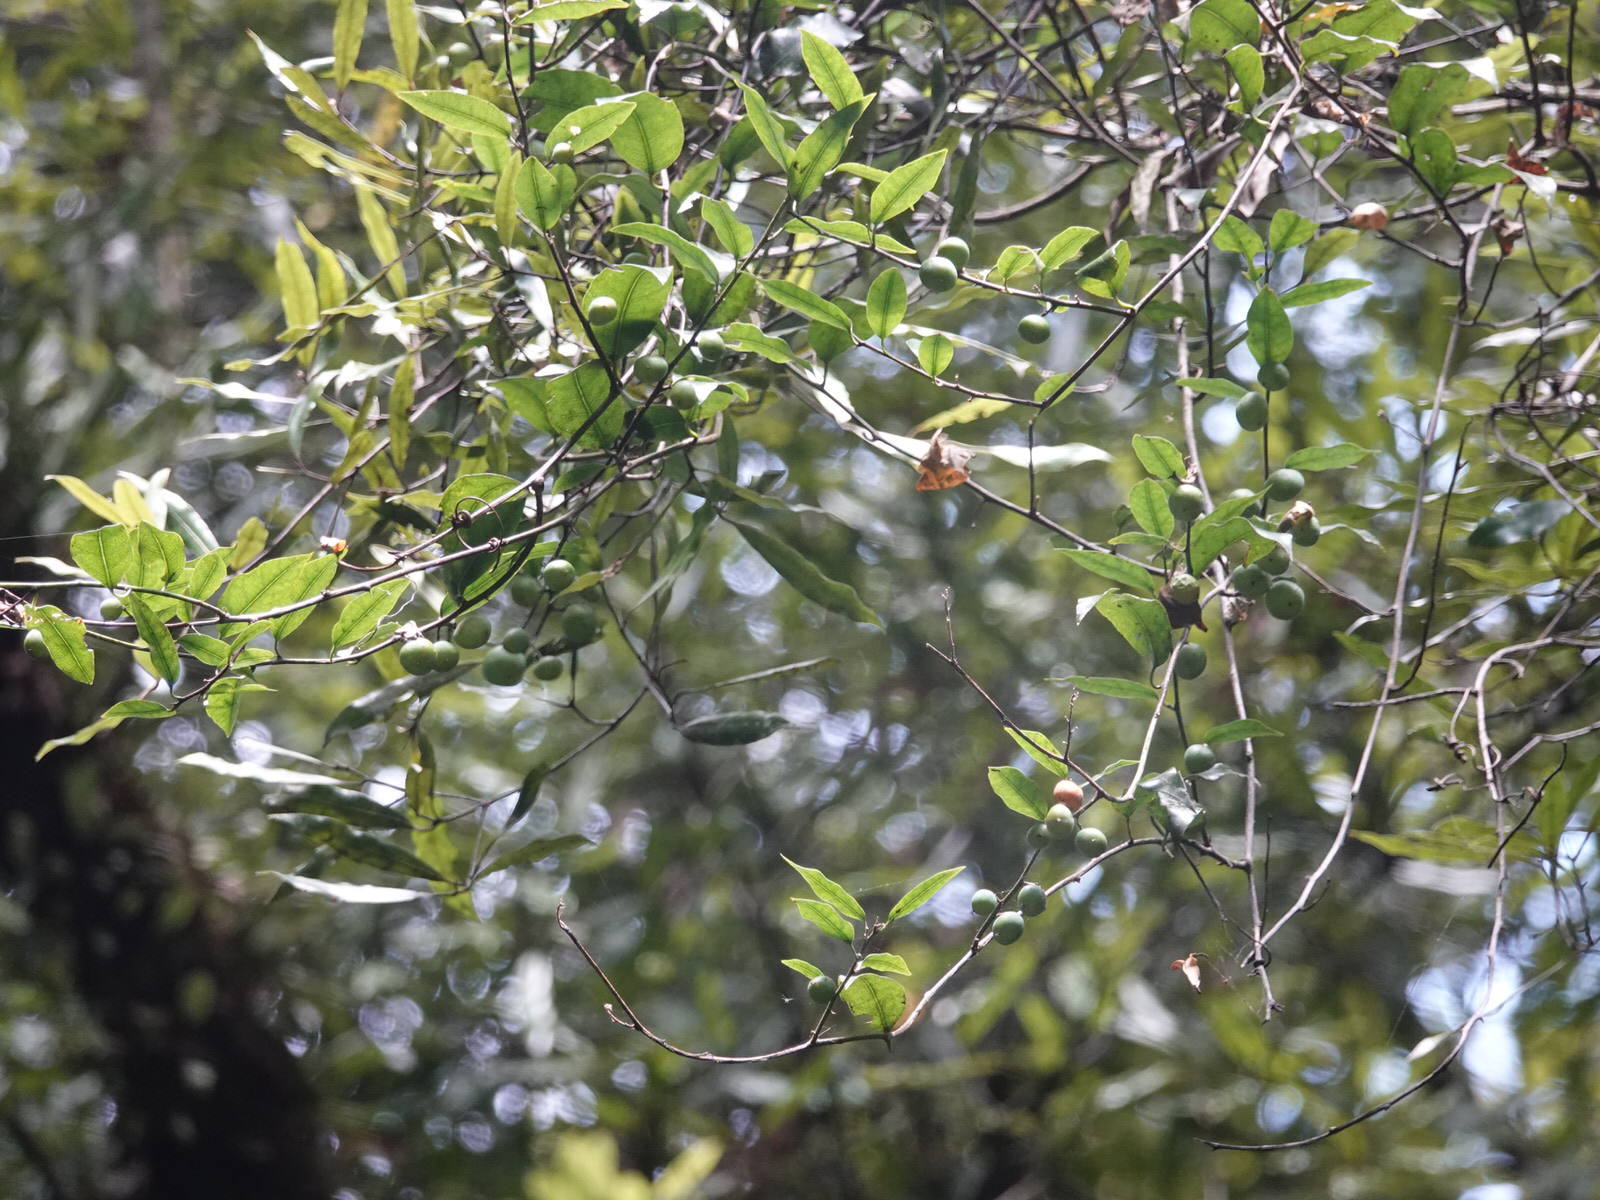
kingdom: Plantae
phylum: Tracheophyta
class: Magnoliopsida
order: Malpighiales
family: Passifloraceae
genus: Passiflora
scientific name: Passiflora tetrandra
